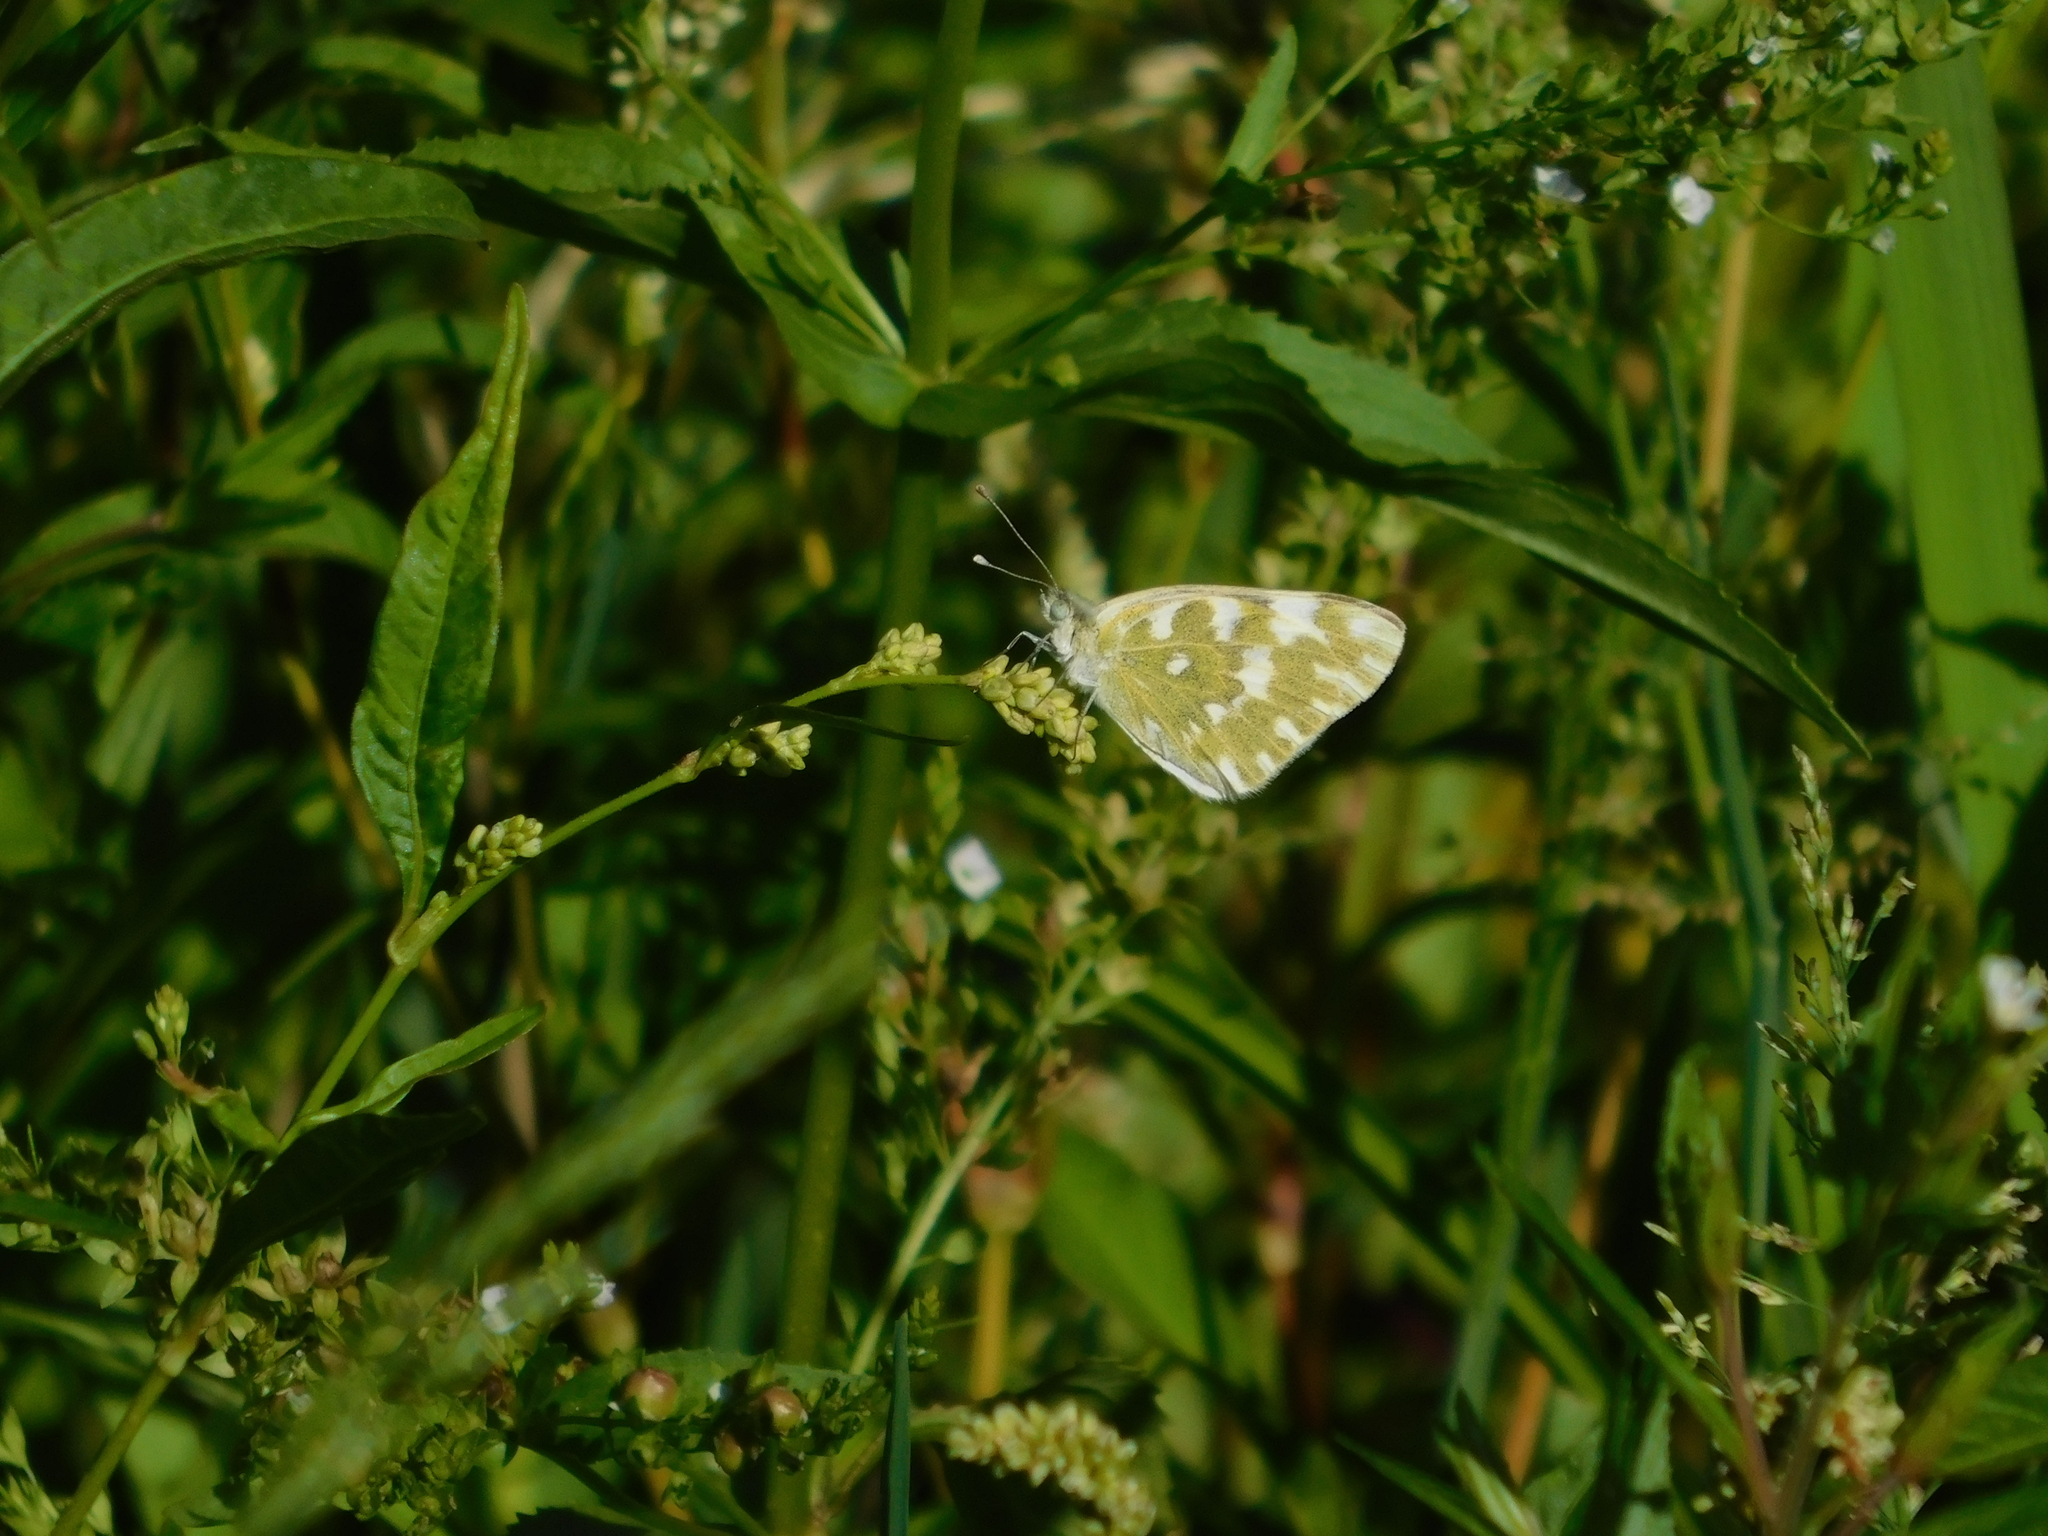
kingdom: Animalia
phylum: Arthropoda
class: Insecta
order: Lepidoptera
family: Pieridae
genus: Pontia
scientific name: Pontia edusa
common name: Eastern bath white
